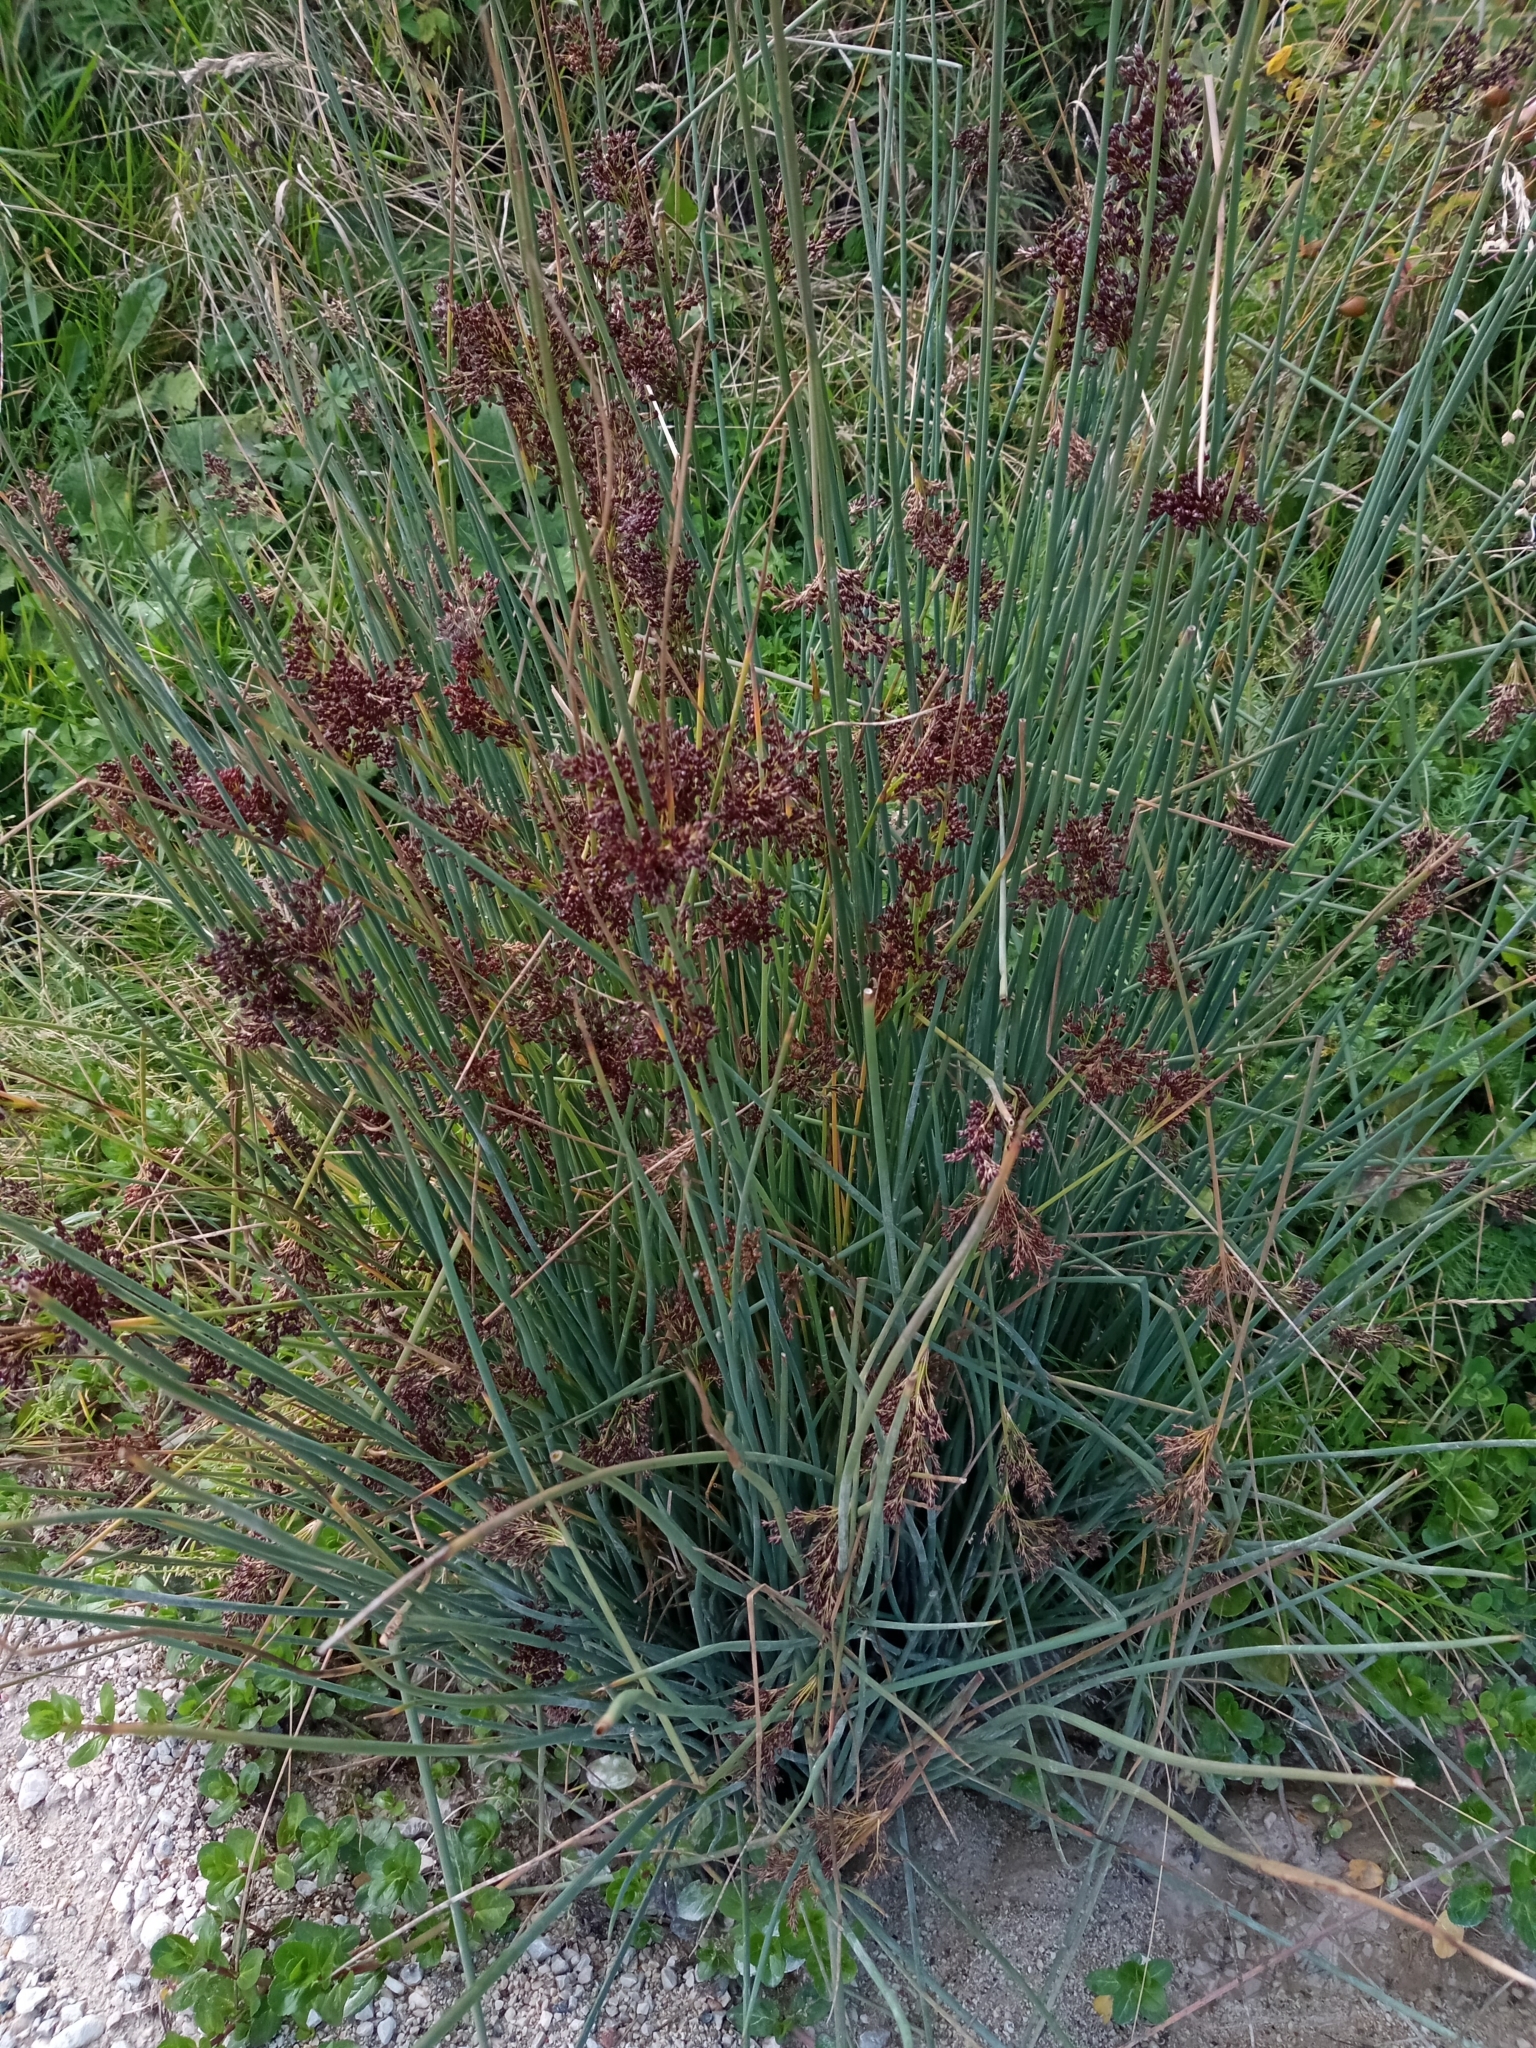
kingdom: Plantae
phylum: Tracheophyta
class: Liliopsida
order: Poales
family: Juncaceae
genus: Juncus
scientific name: Juncus inflexus
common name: Hard rush
